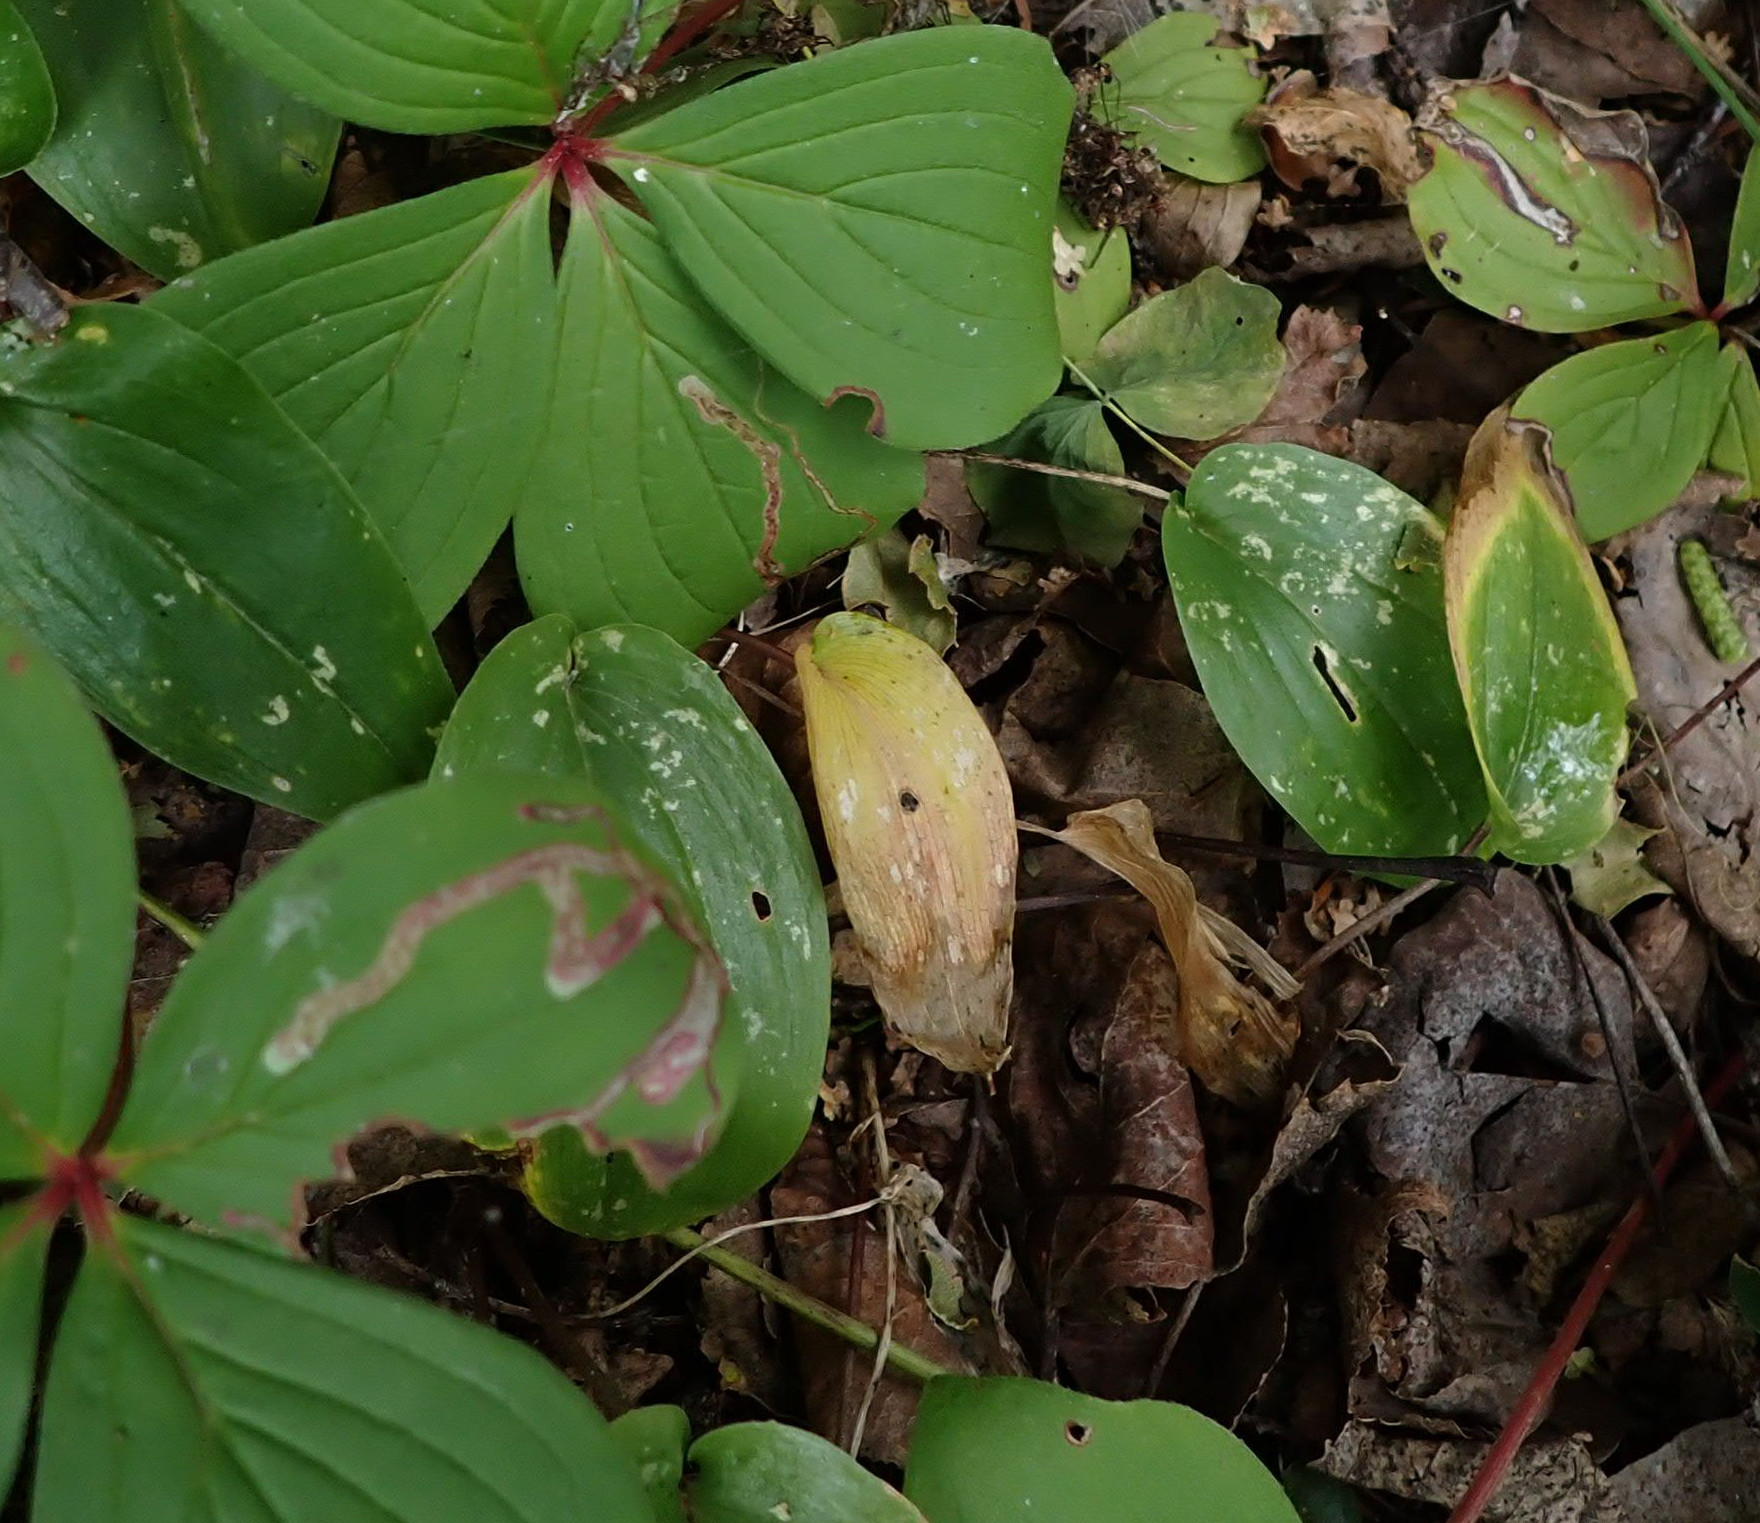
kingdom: Animalia
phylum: Arthropoda
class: Insecta
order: Diptera
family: Agromyzidae
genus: Phytomyza
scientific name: Phytomyza agromyzina
